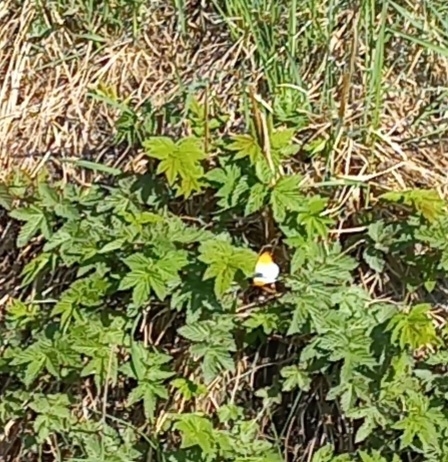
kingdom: Animalia
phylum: Arthropoda
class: Insecta
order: Lepidoptera
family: Pieridae
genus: Anthocharis
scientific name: Anthocharis cardamines
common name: Orange-tip
